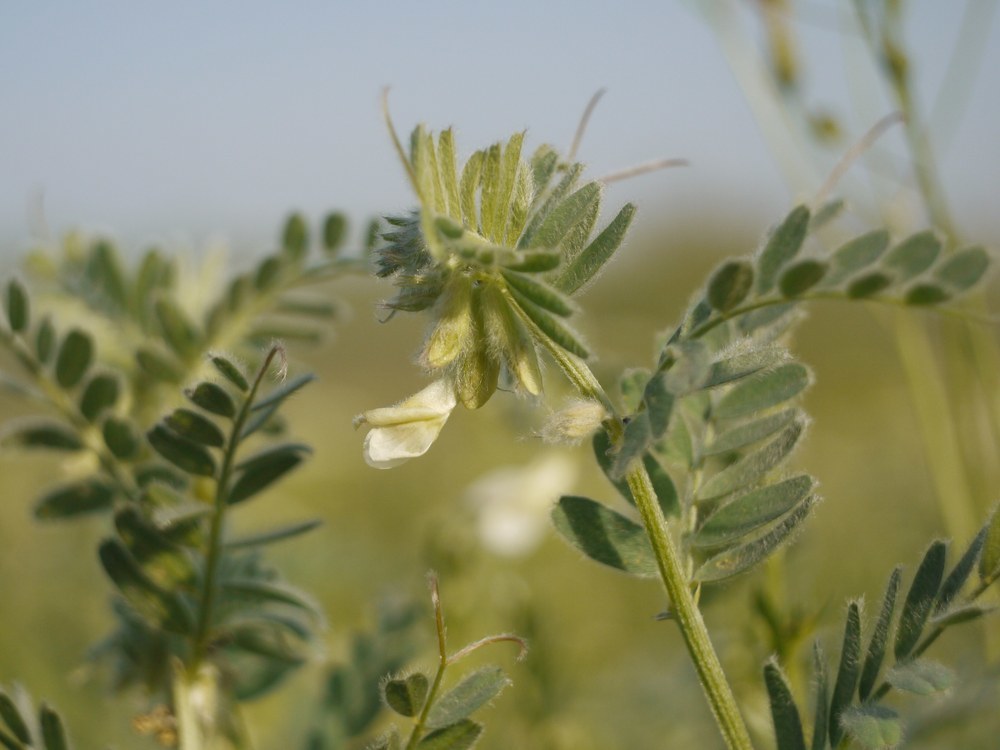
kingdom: Plantae
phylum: Tracheophyta
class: Magnoliopsida
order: Fabales
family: Fabaceae
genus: Vicia
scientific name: Vicia pannonica
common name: Hungarian vetch
